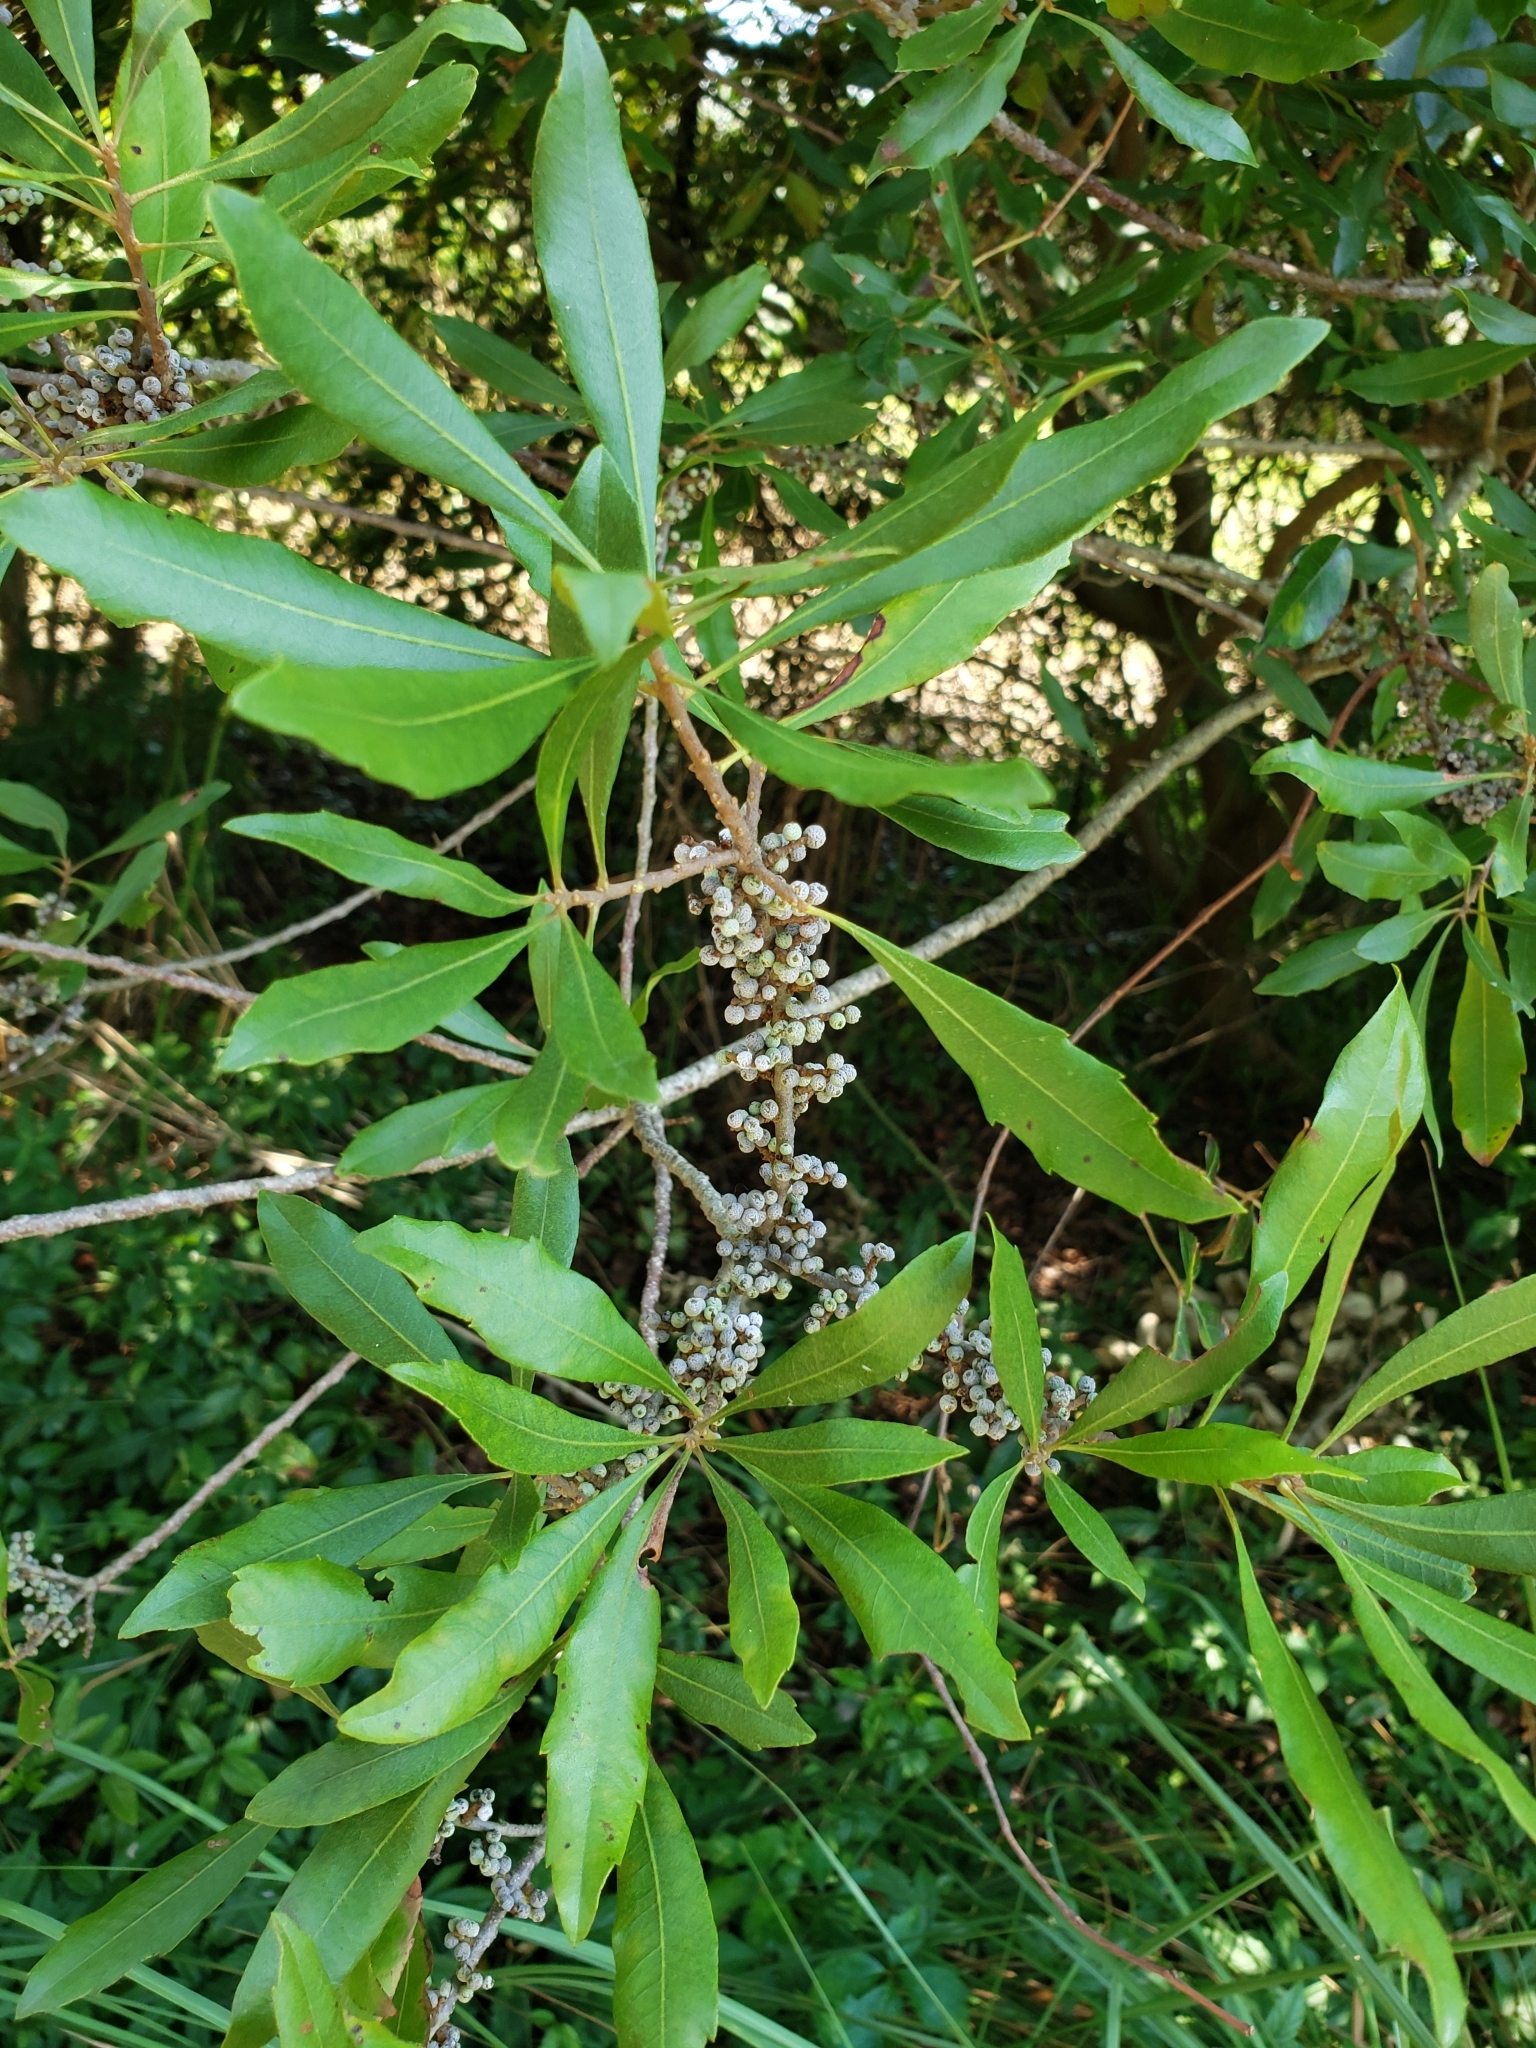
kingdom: Plantae
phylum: Tracheophyta
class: Magnoliopsida
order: Fagales
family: Myricaceae
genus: Morella
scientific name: Morella cerifera
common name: Wax myrtle
